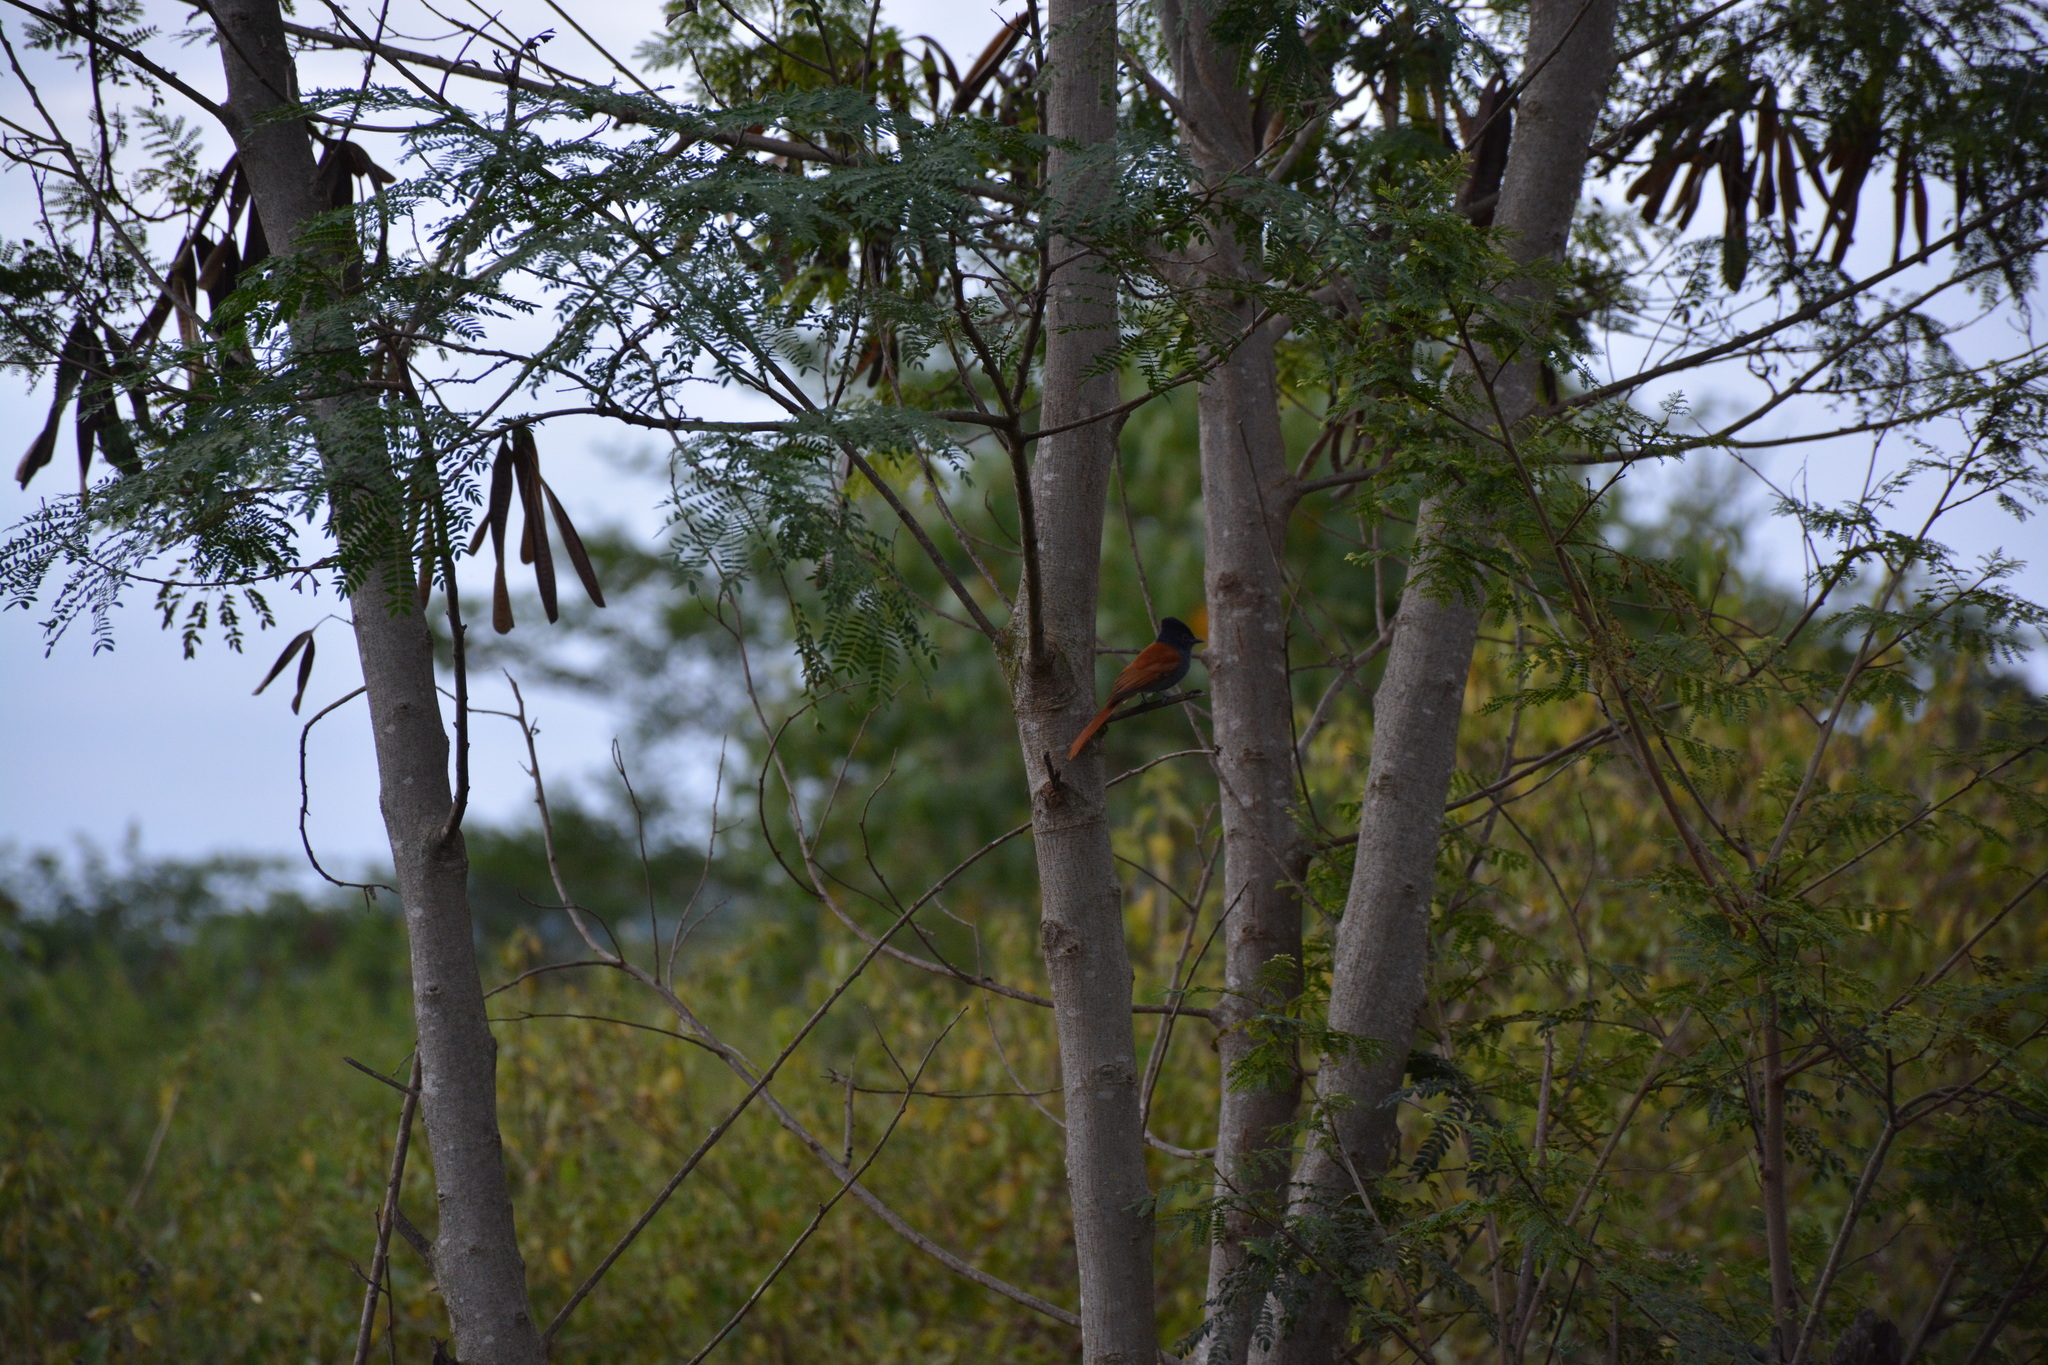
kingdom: Animalia
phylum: Chordata
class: Aves
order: Passeriformes
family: Monarchidae
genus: Terpsiphone
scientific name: Terpsiphone viridis
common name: African paradise flycatcher
